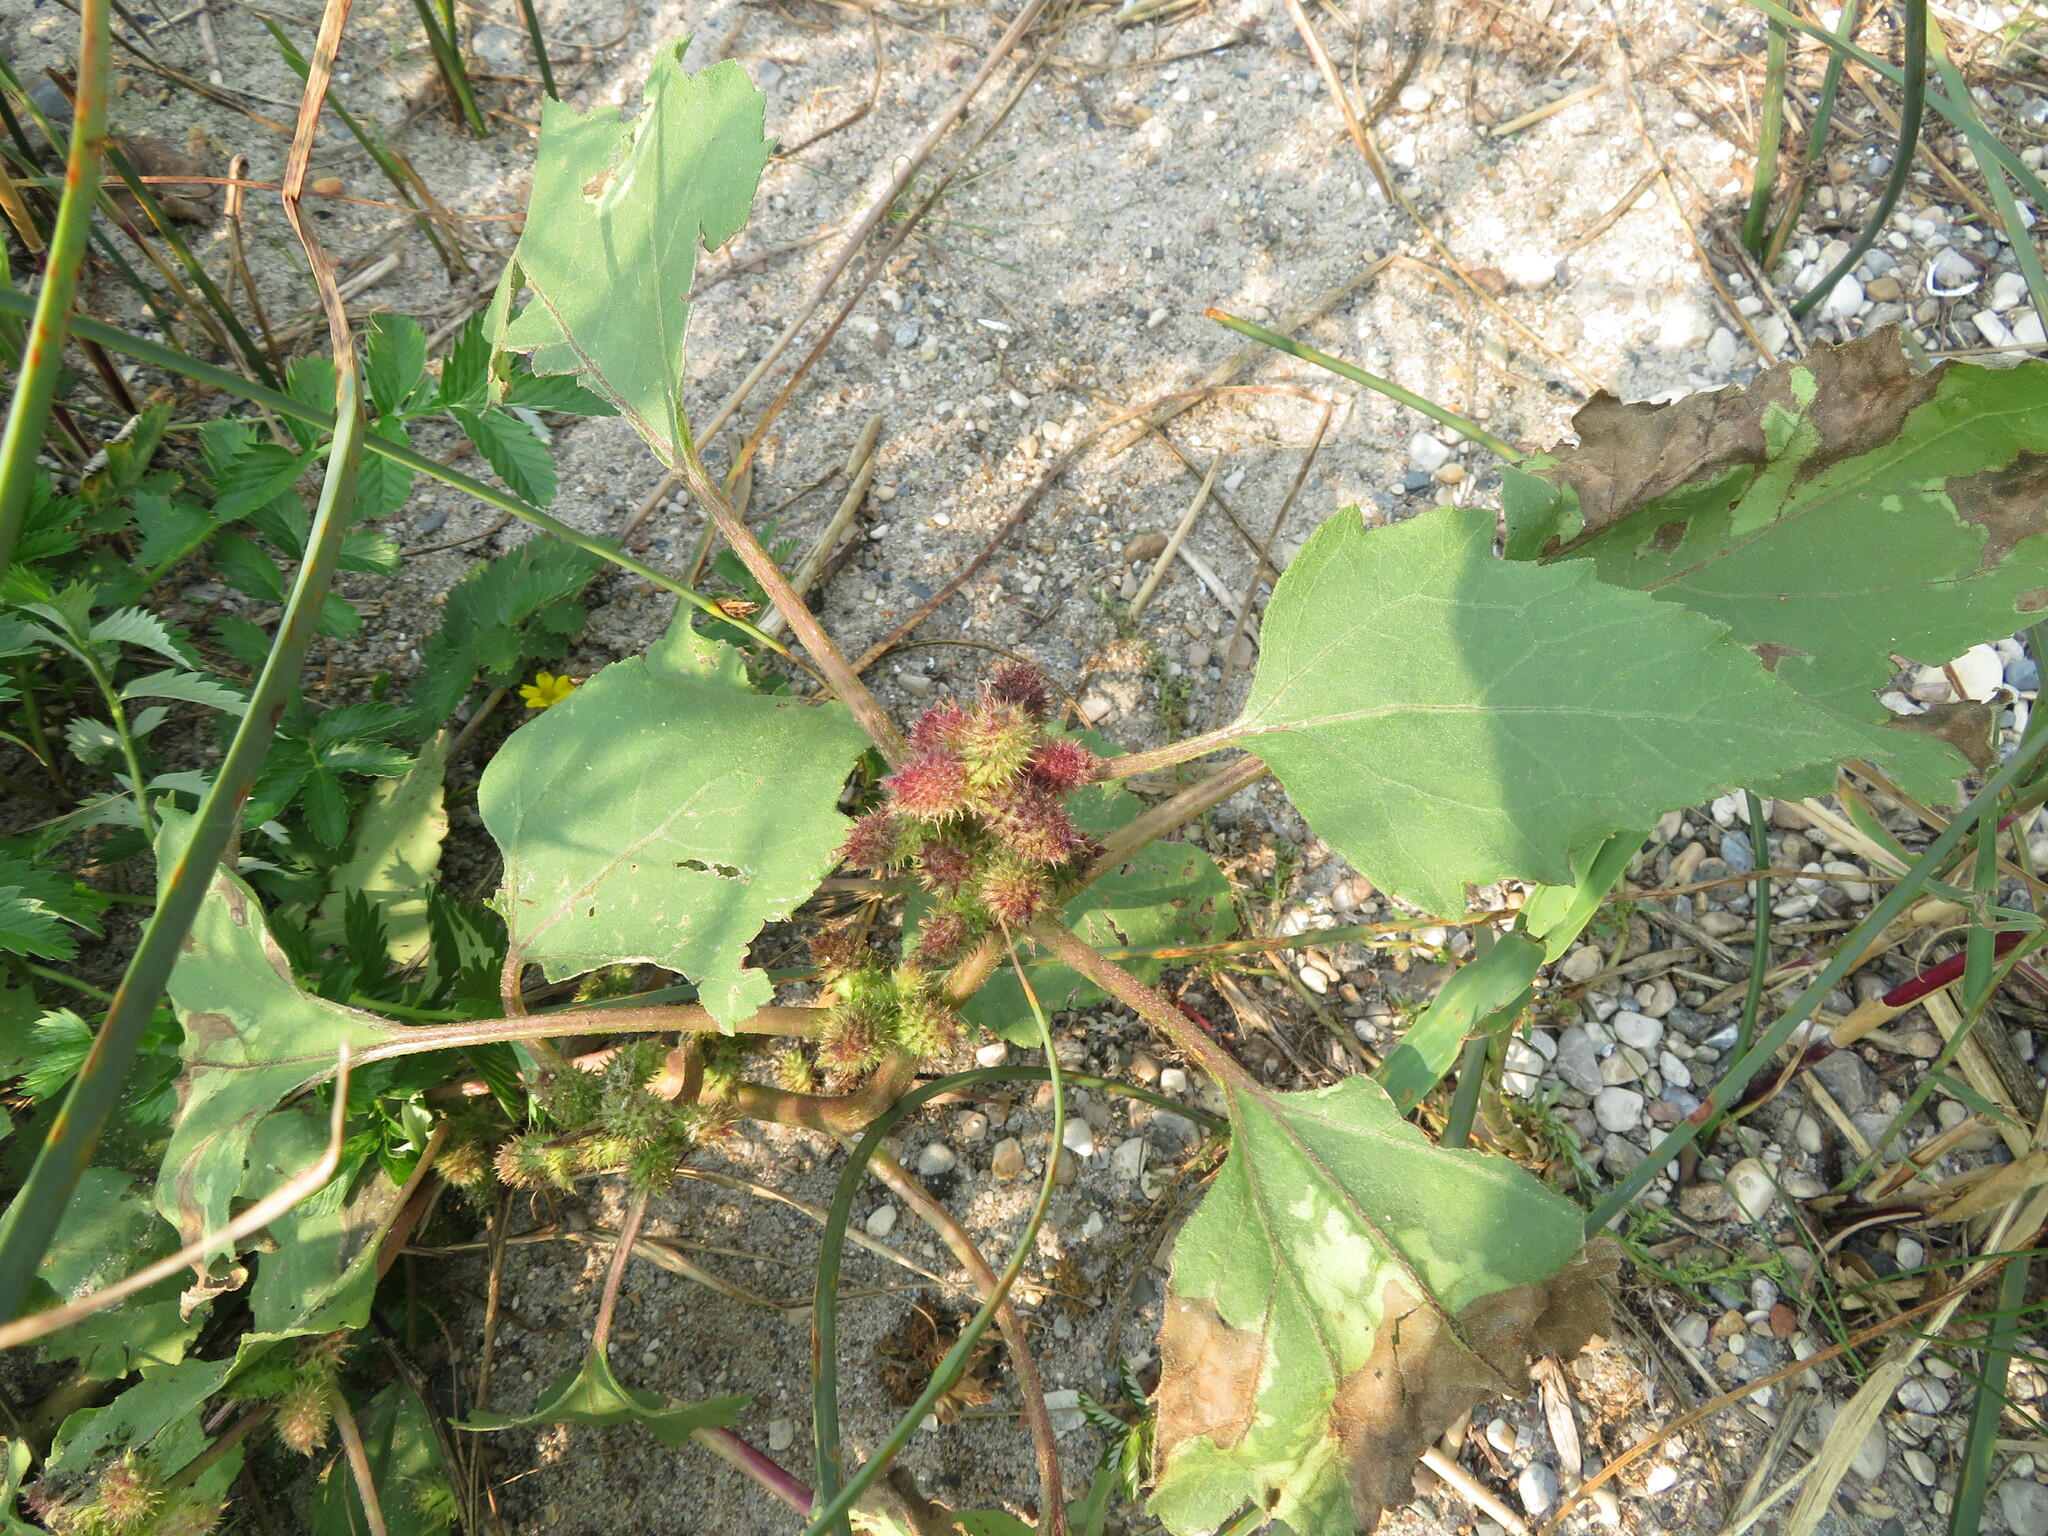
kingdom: Plantae
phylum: Tracheophyta
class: Magnoliopsida
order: Asterales
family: Asteraceae
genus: Xanthium
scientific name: Xanthium strumarium
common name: Rough cocklebur
